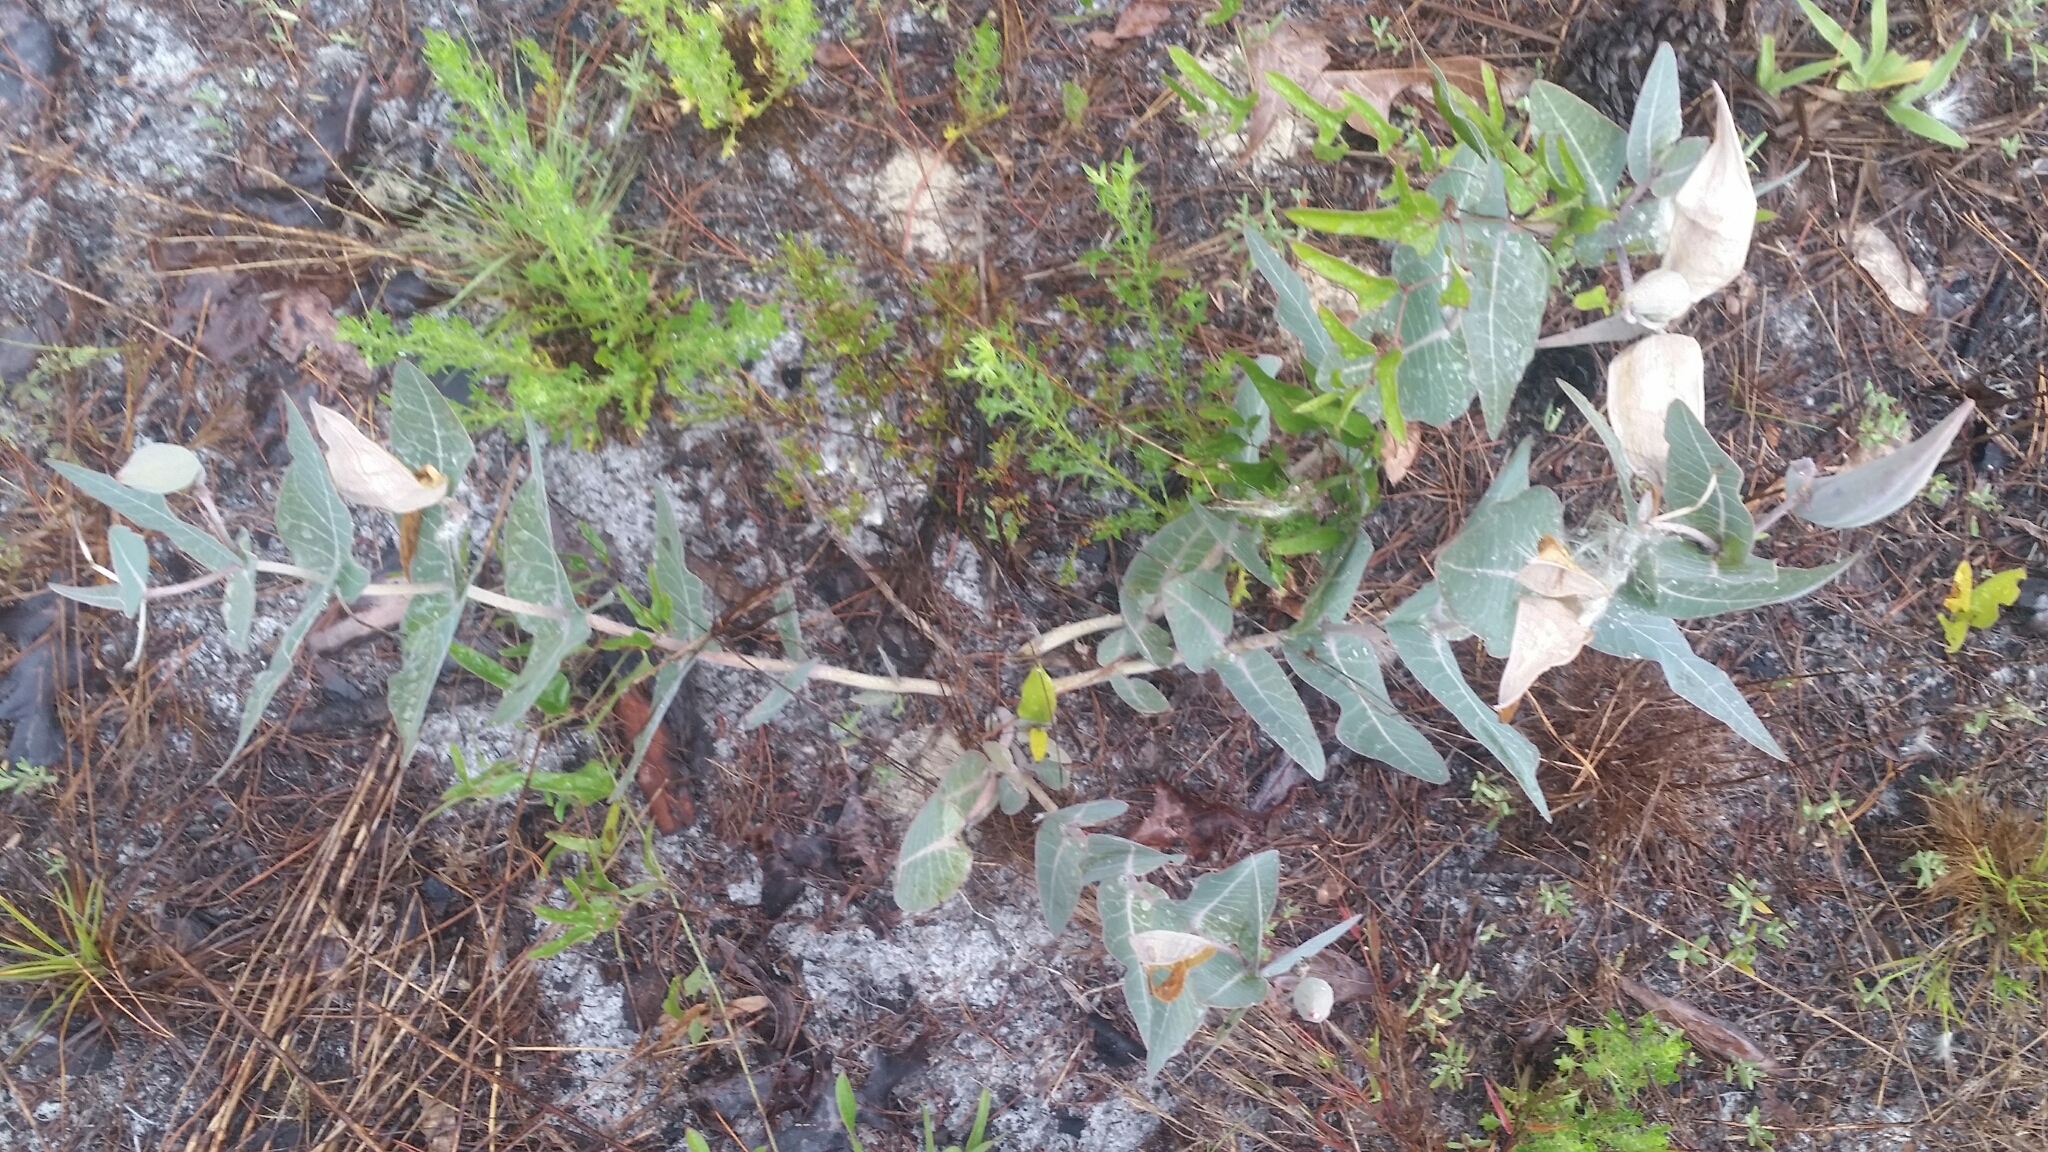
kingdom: Plantae
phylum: Tracheophyta
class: Magnoliopsida
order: Gentianales
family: Apocynaceae
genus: Asclepias
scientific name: Asclepias humistrata
